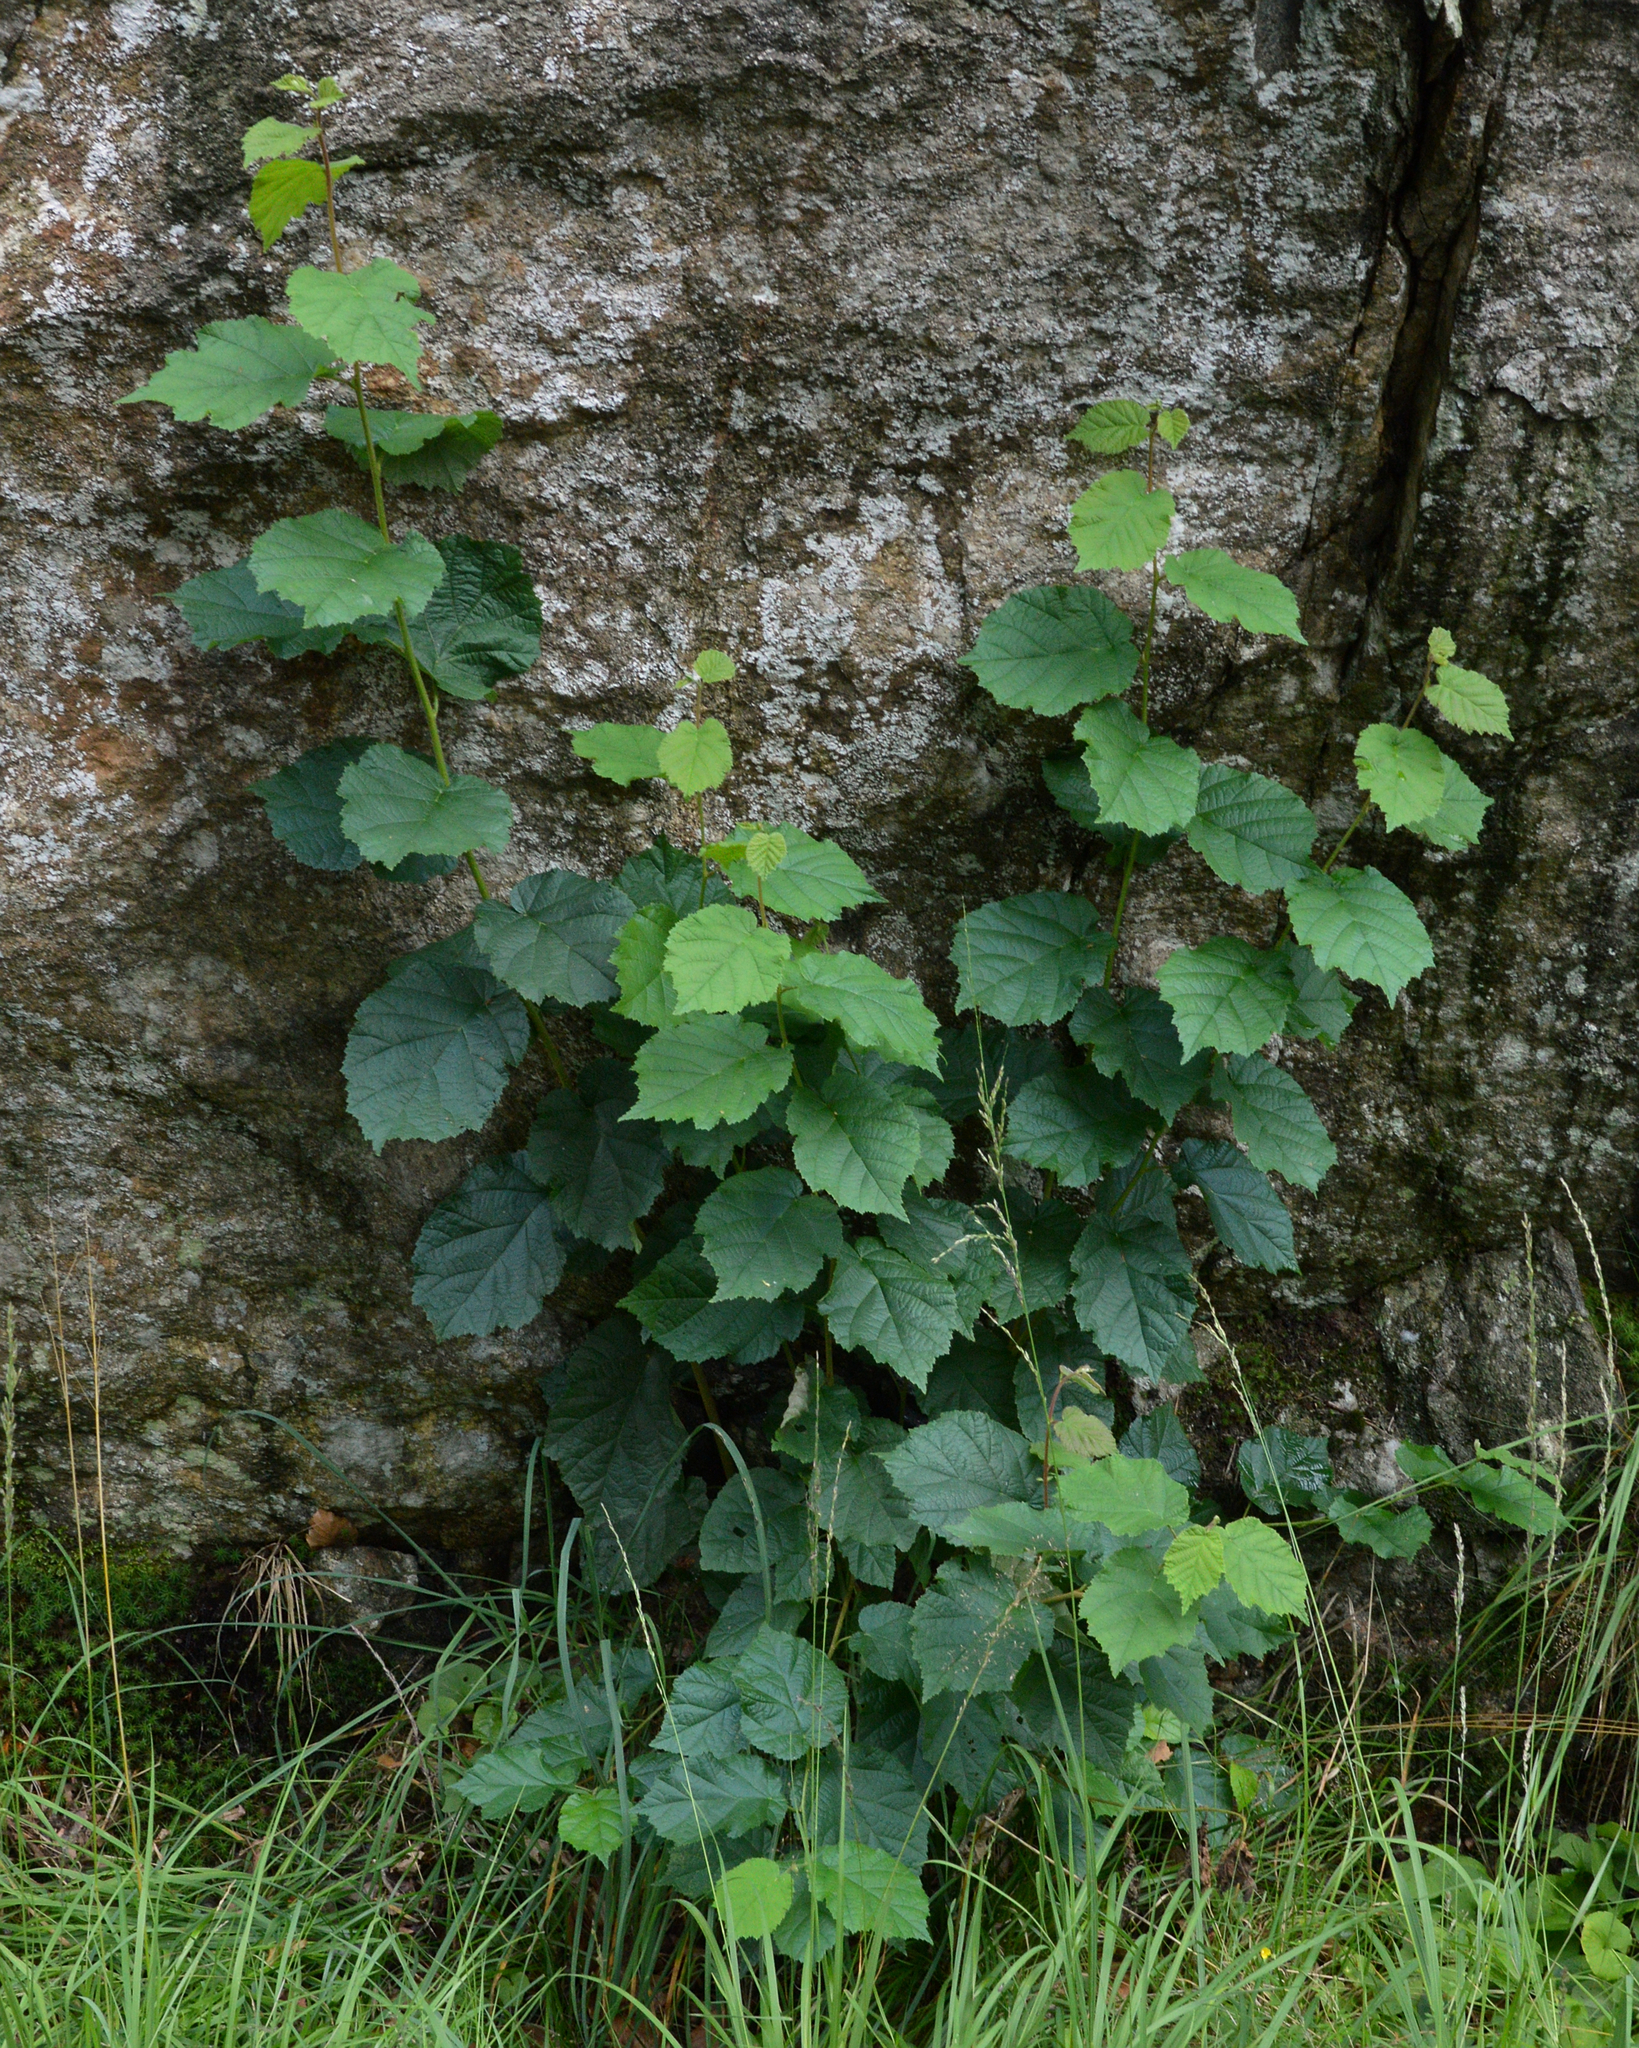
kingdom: Plantae
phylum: Tracheophyta
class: Magnoliopsida
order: Fagales
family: Betulaceae
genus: Corylus
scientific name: Corylus avellana
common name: European hazel
